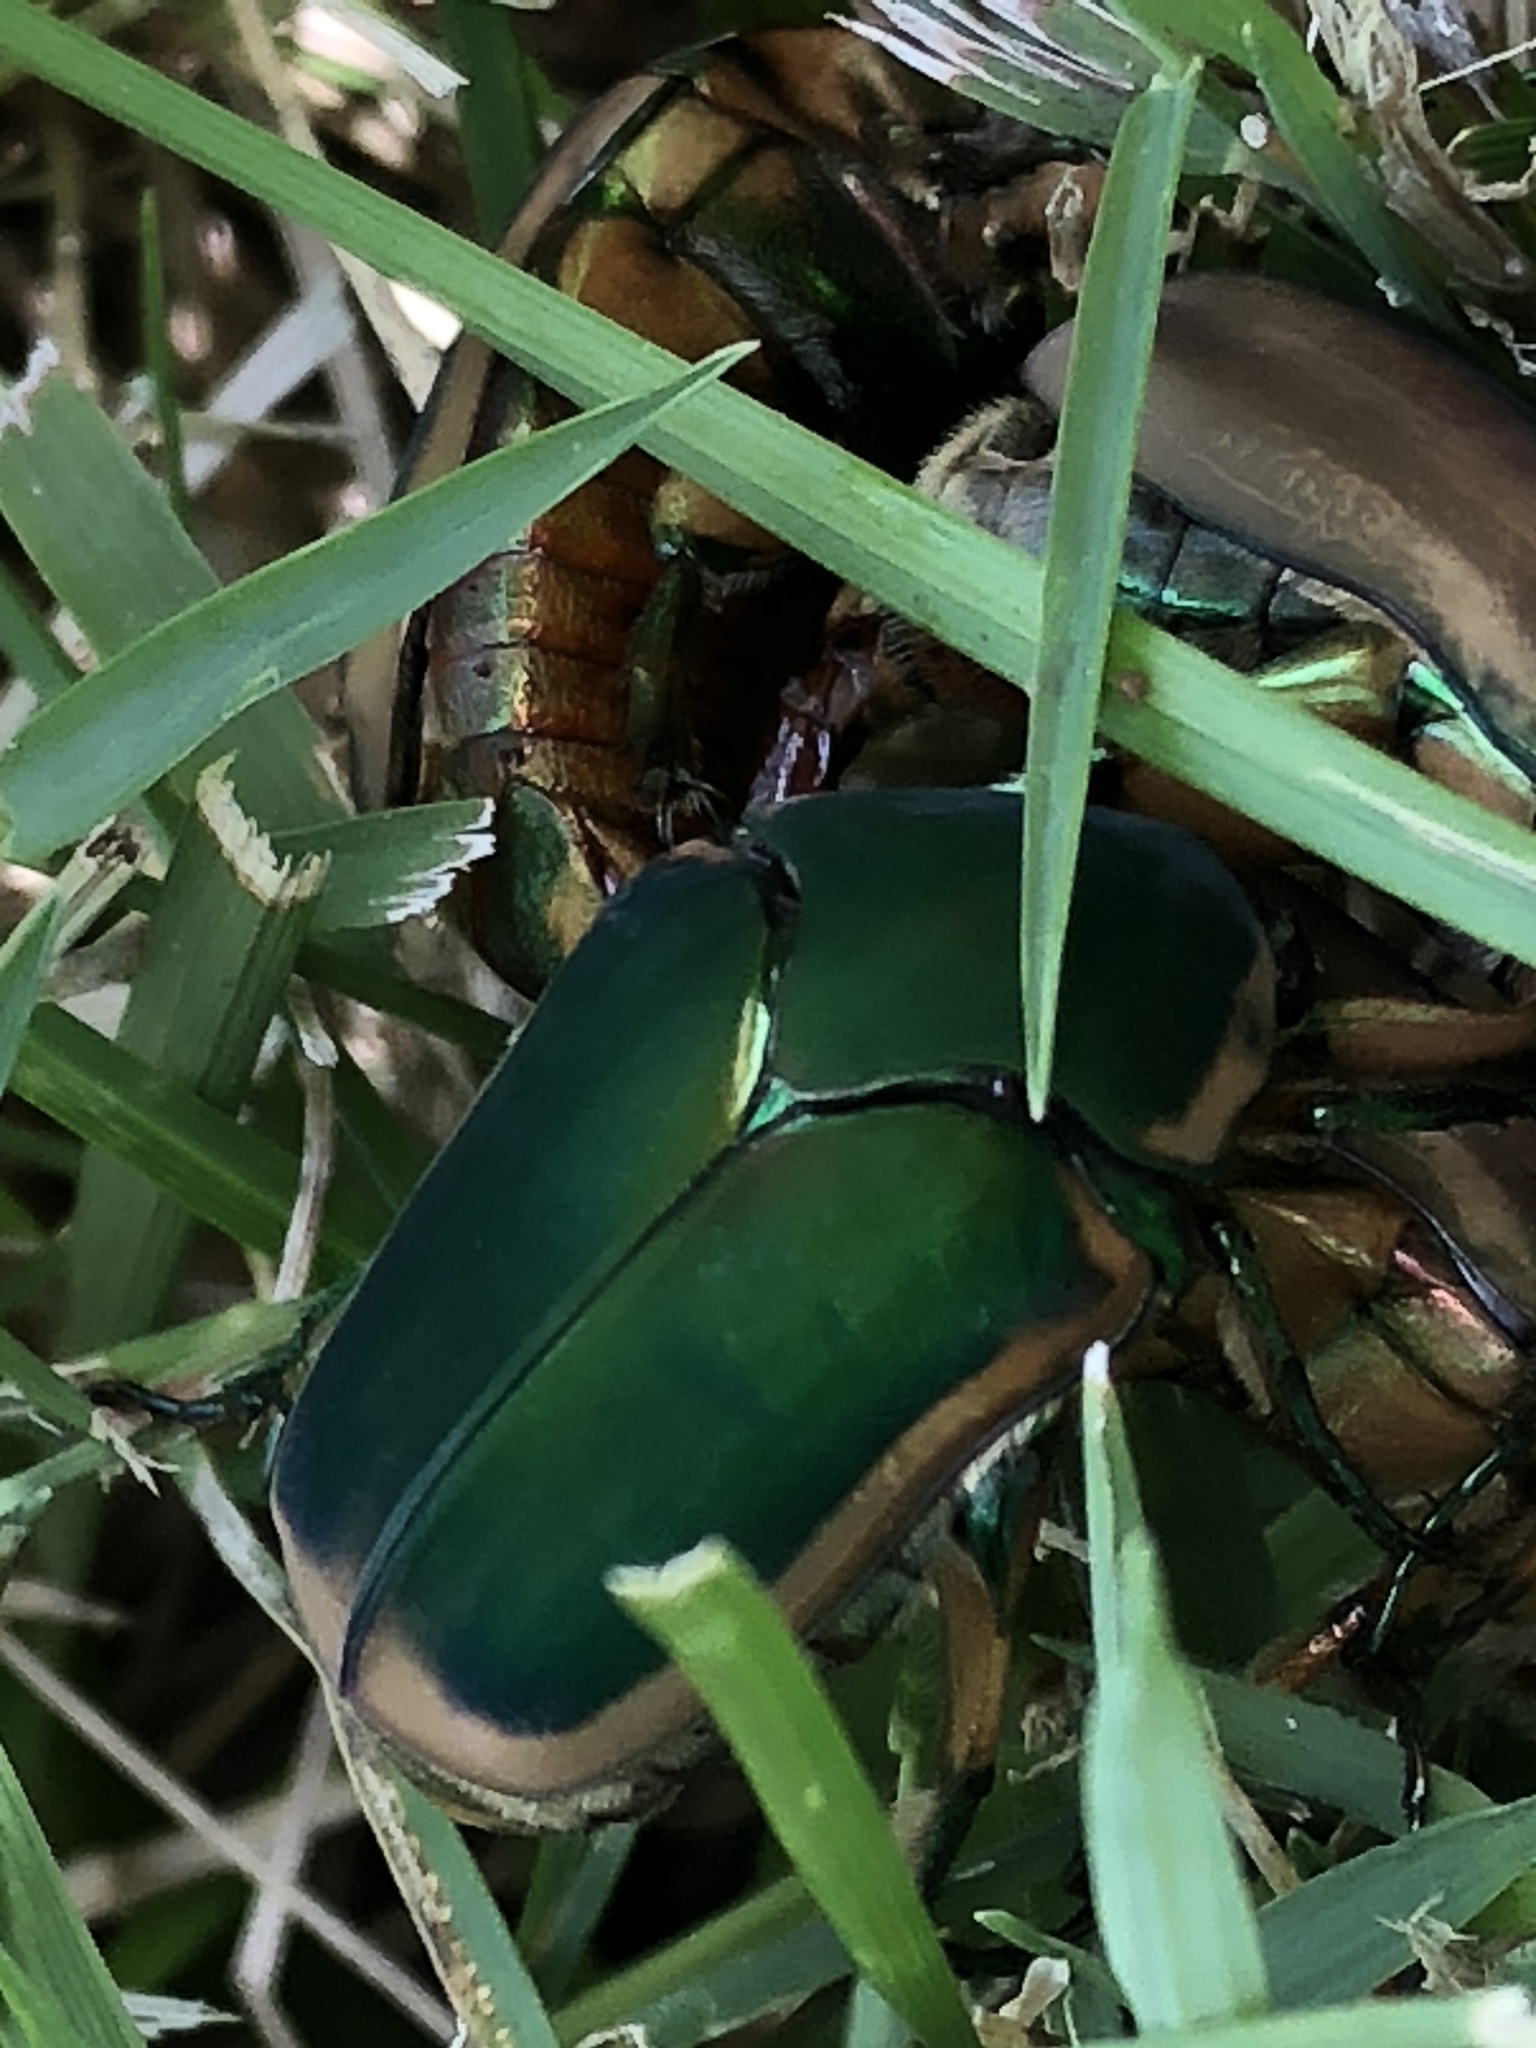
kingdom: Animalia
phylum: Arthropoda
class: Insecta
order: Coleoptera
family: Scarabaeidae
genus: Cotinis
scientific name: Cotinis nitida
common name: Common green june beetle
